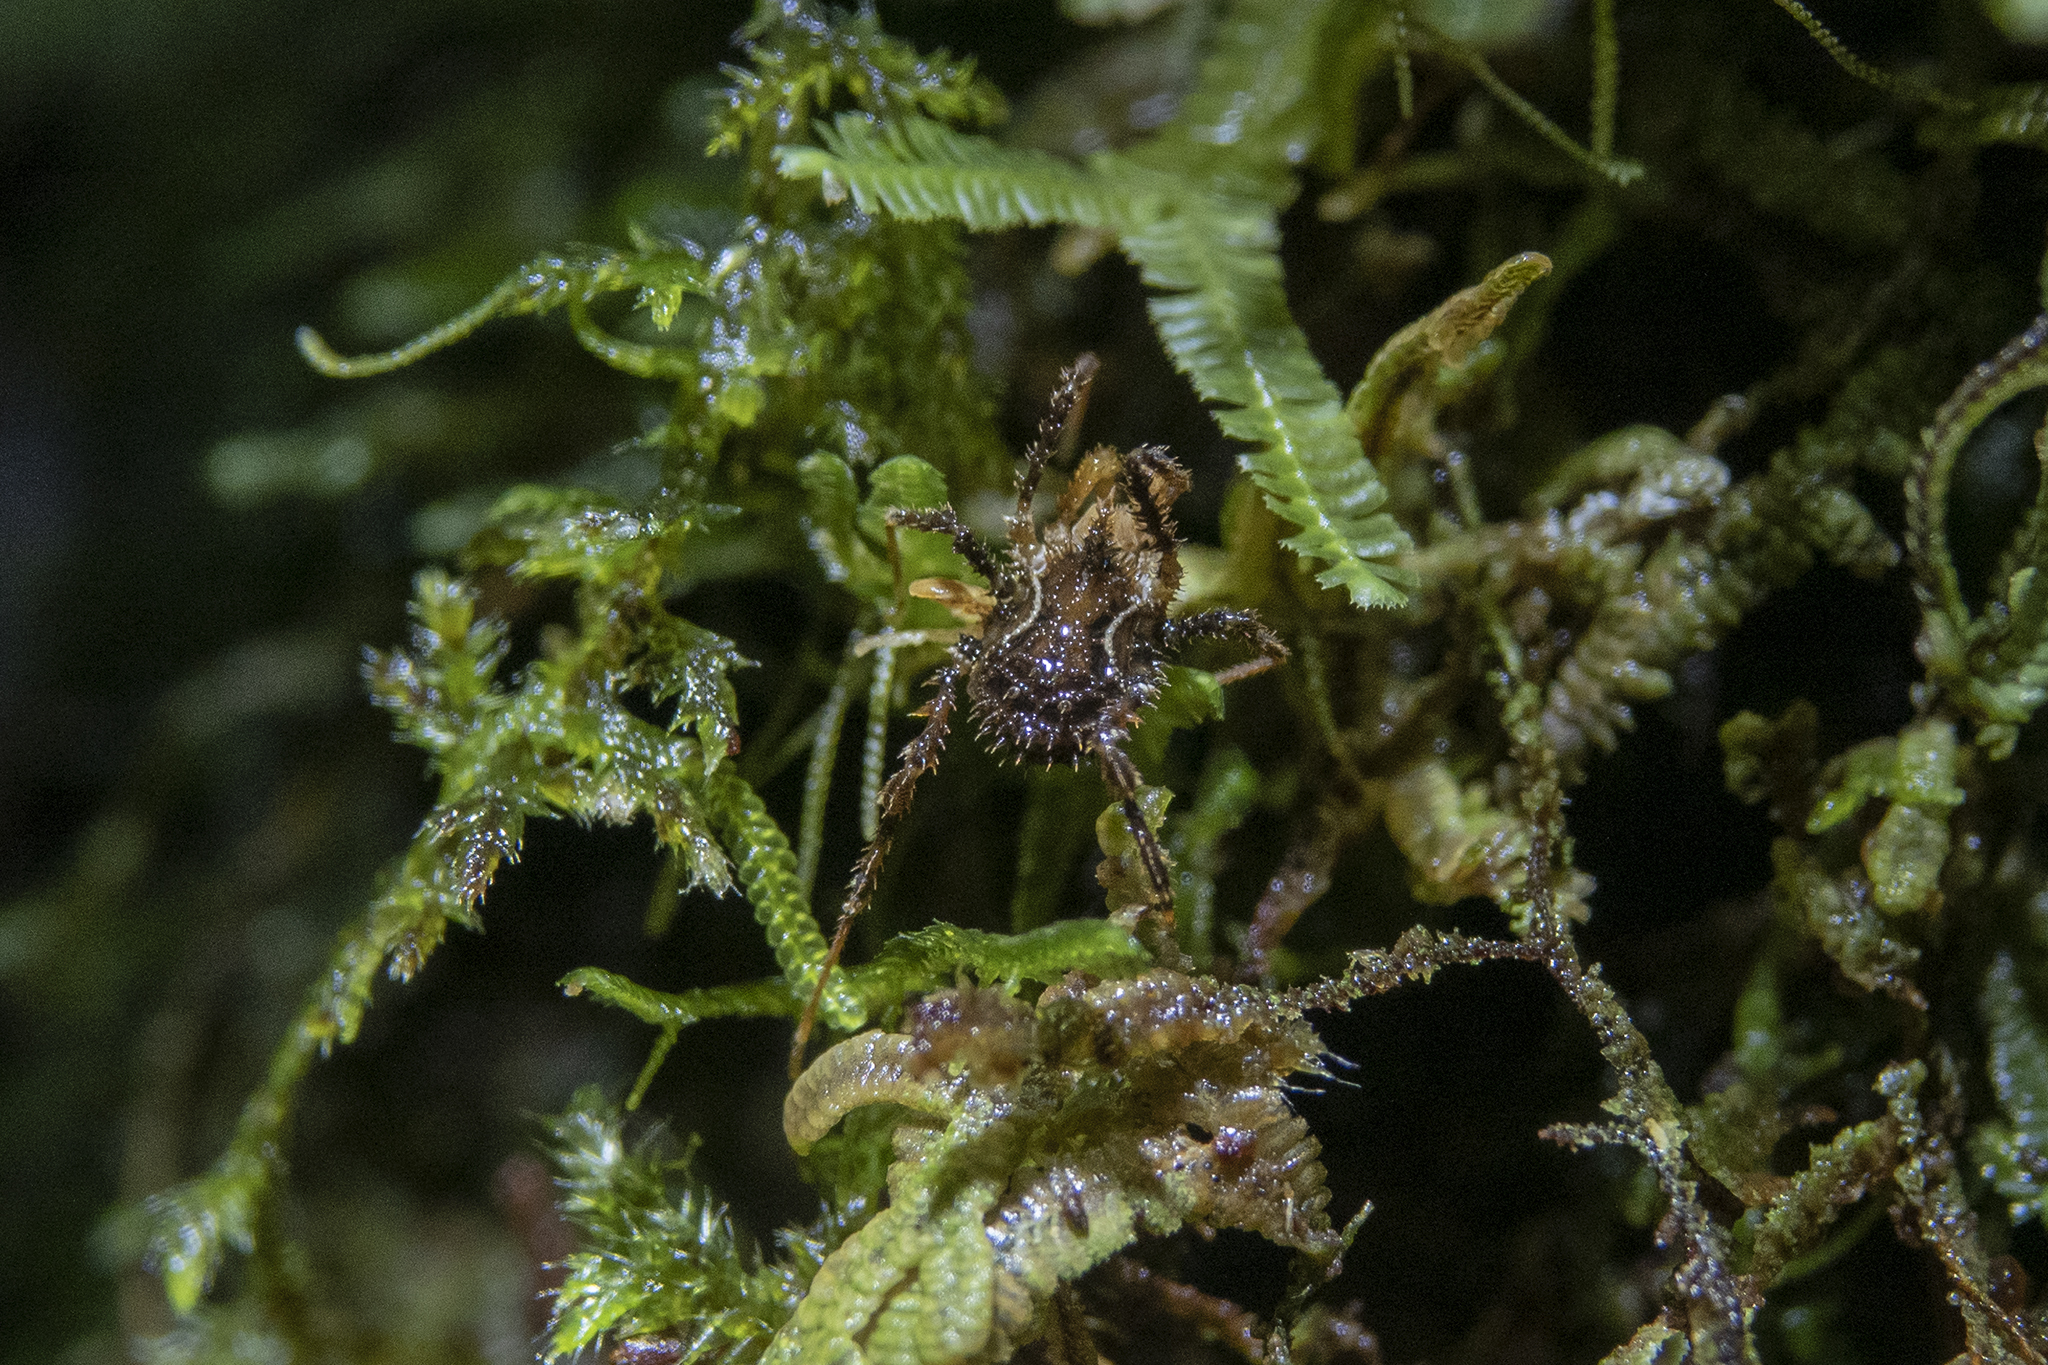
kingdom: Animalia
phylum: Arthropoda
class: Arachnida
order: Opiliones
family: Triaenonychidae
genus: Pristobunus
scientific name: Pristobunus acuminatus
